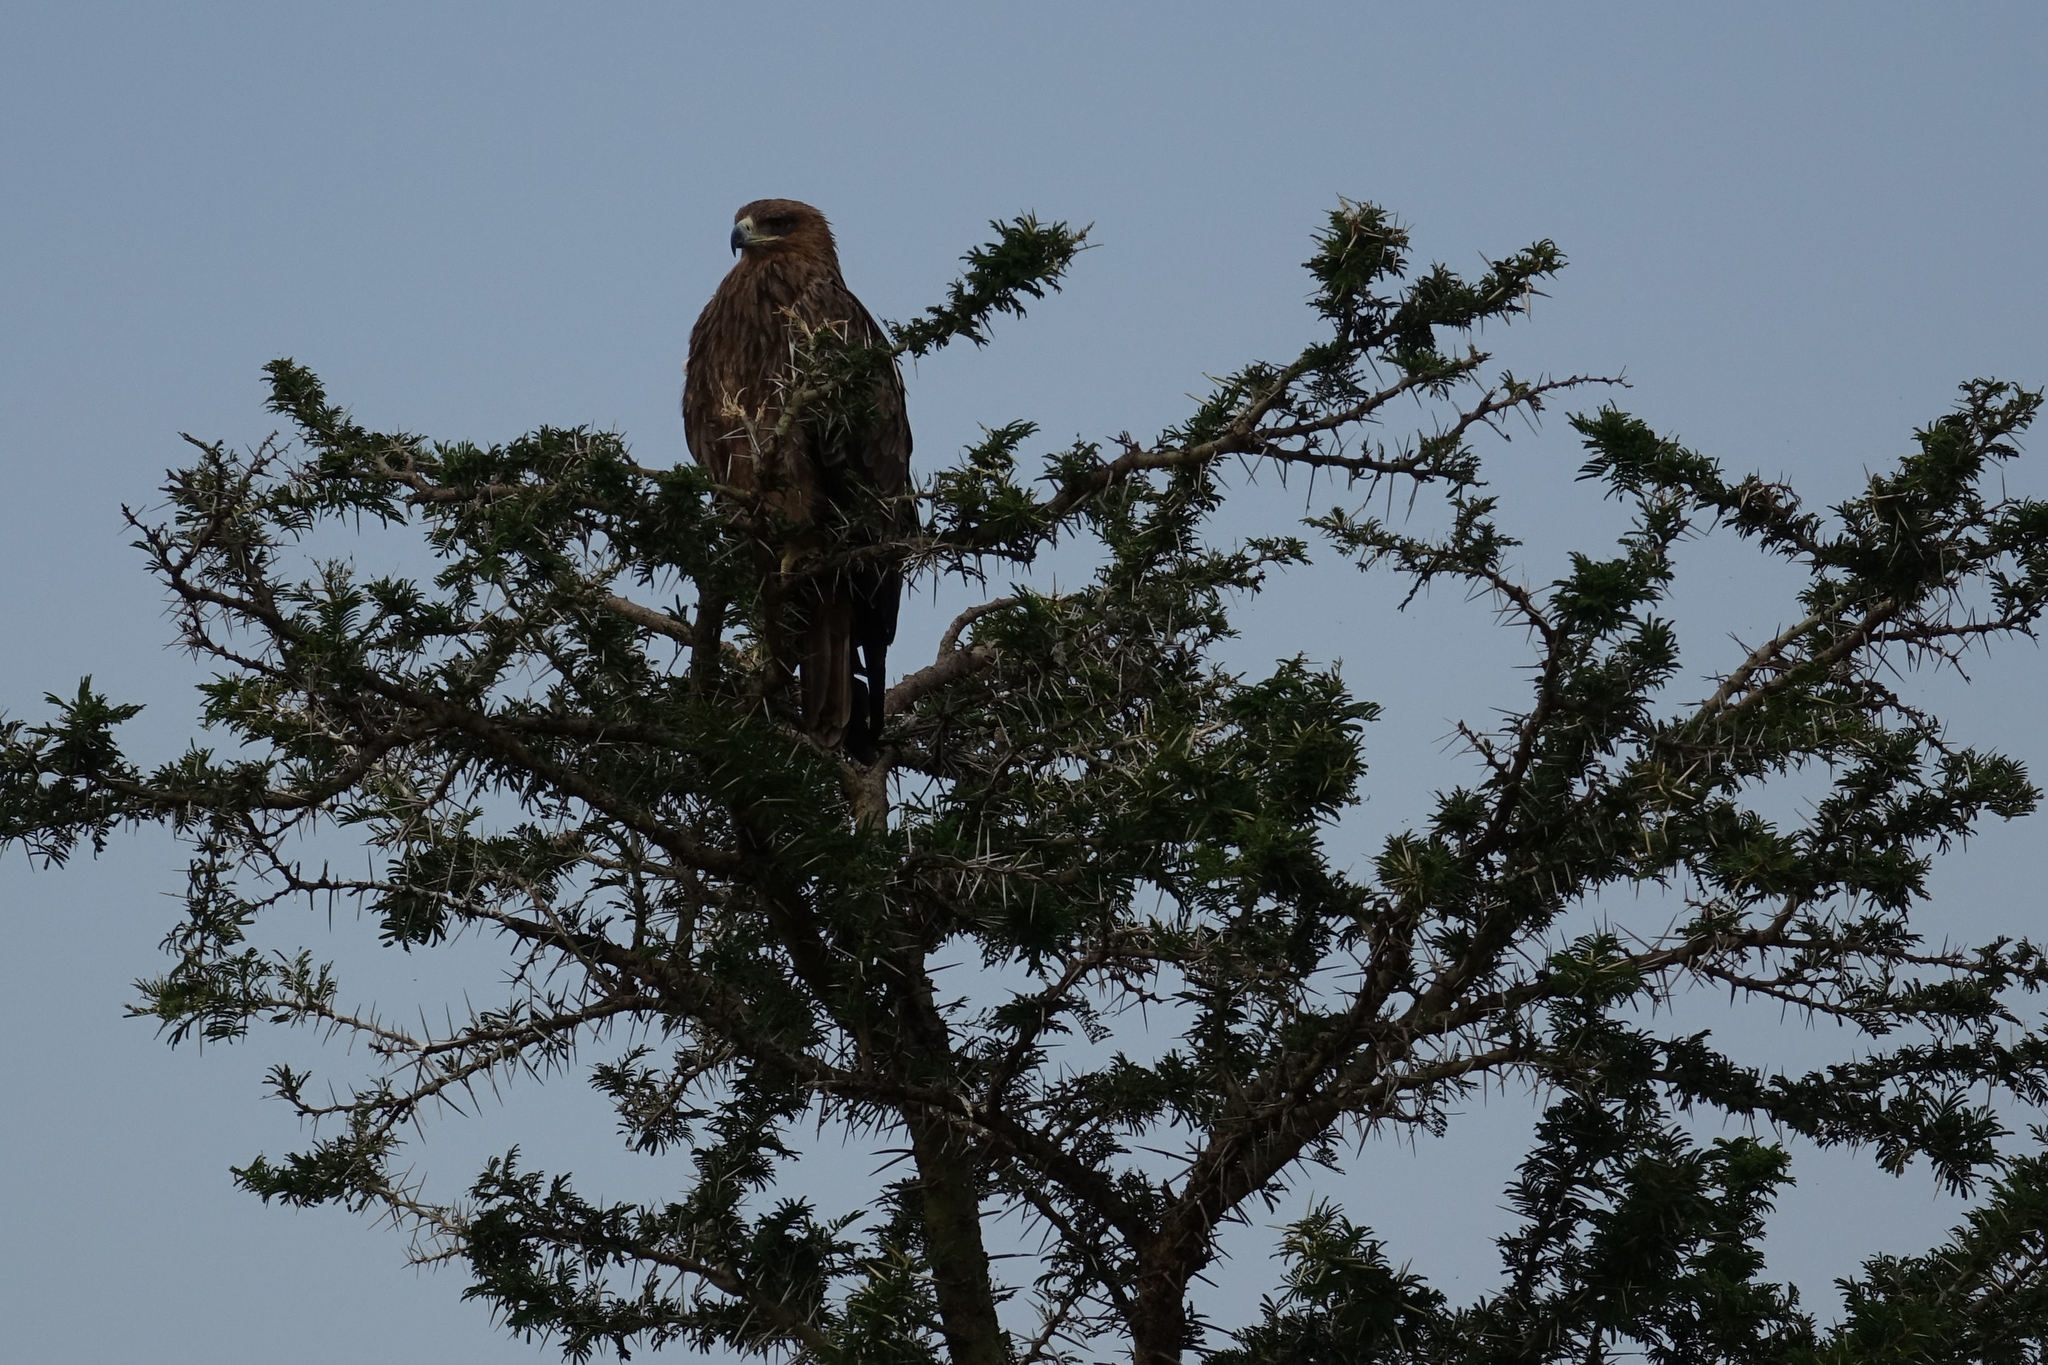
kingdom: Animalia
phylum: Chordata
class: Aves
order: Accipitriformes
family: Accipitridae
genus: Aquila
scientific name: Aquila rapax
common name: Tawny eagle
